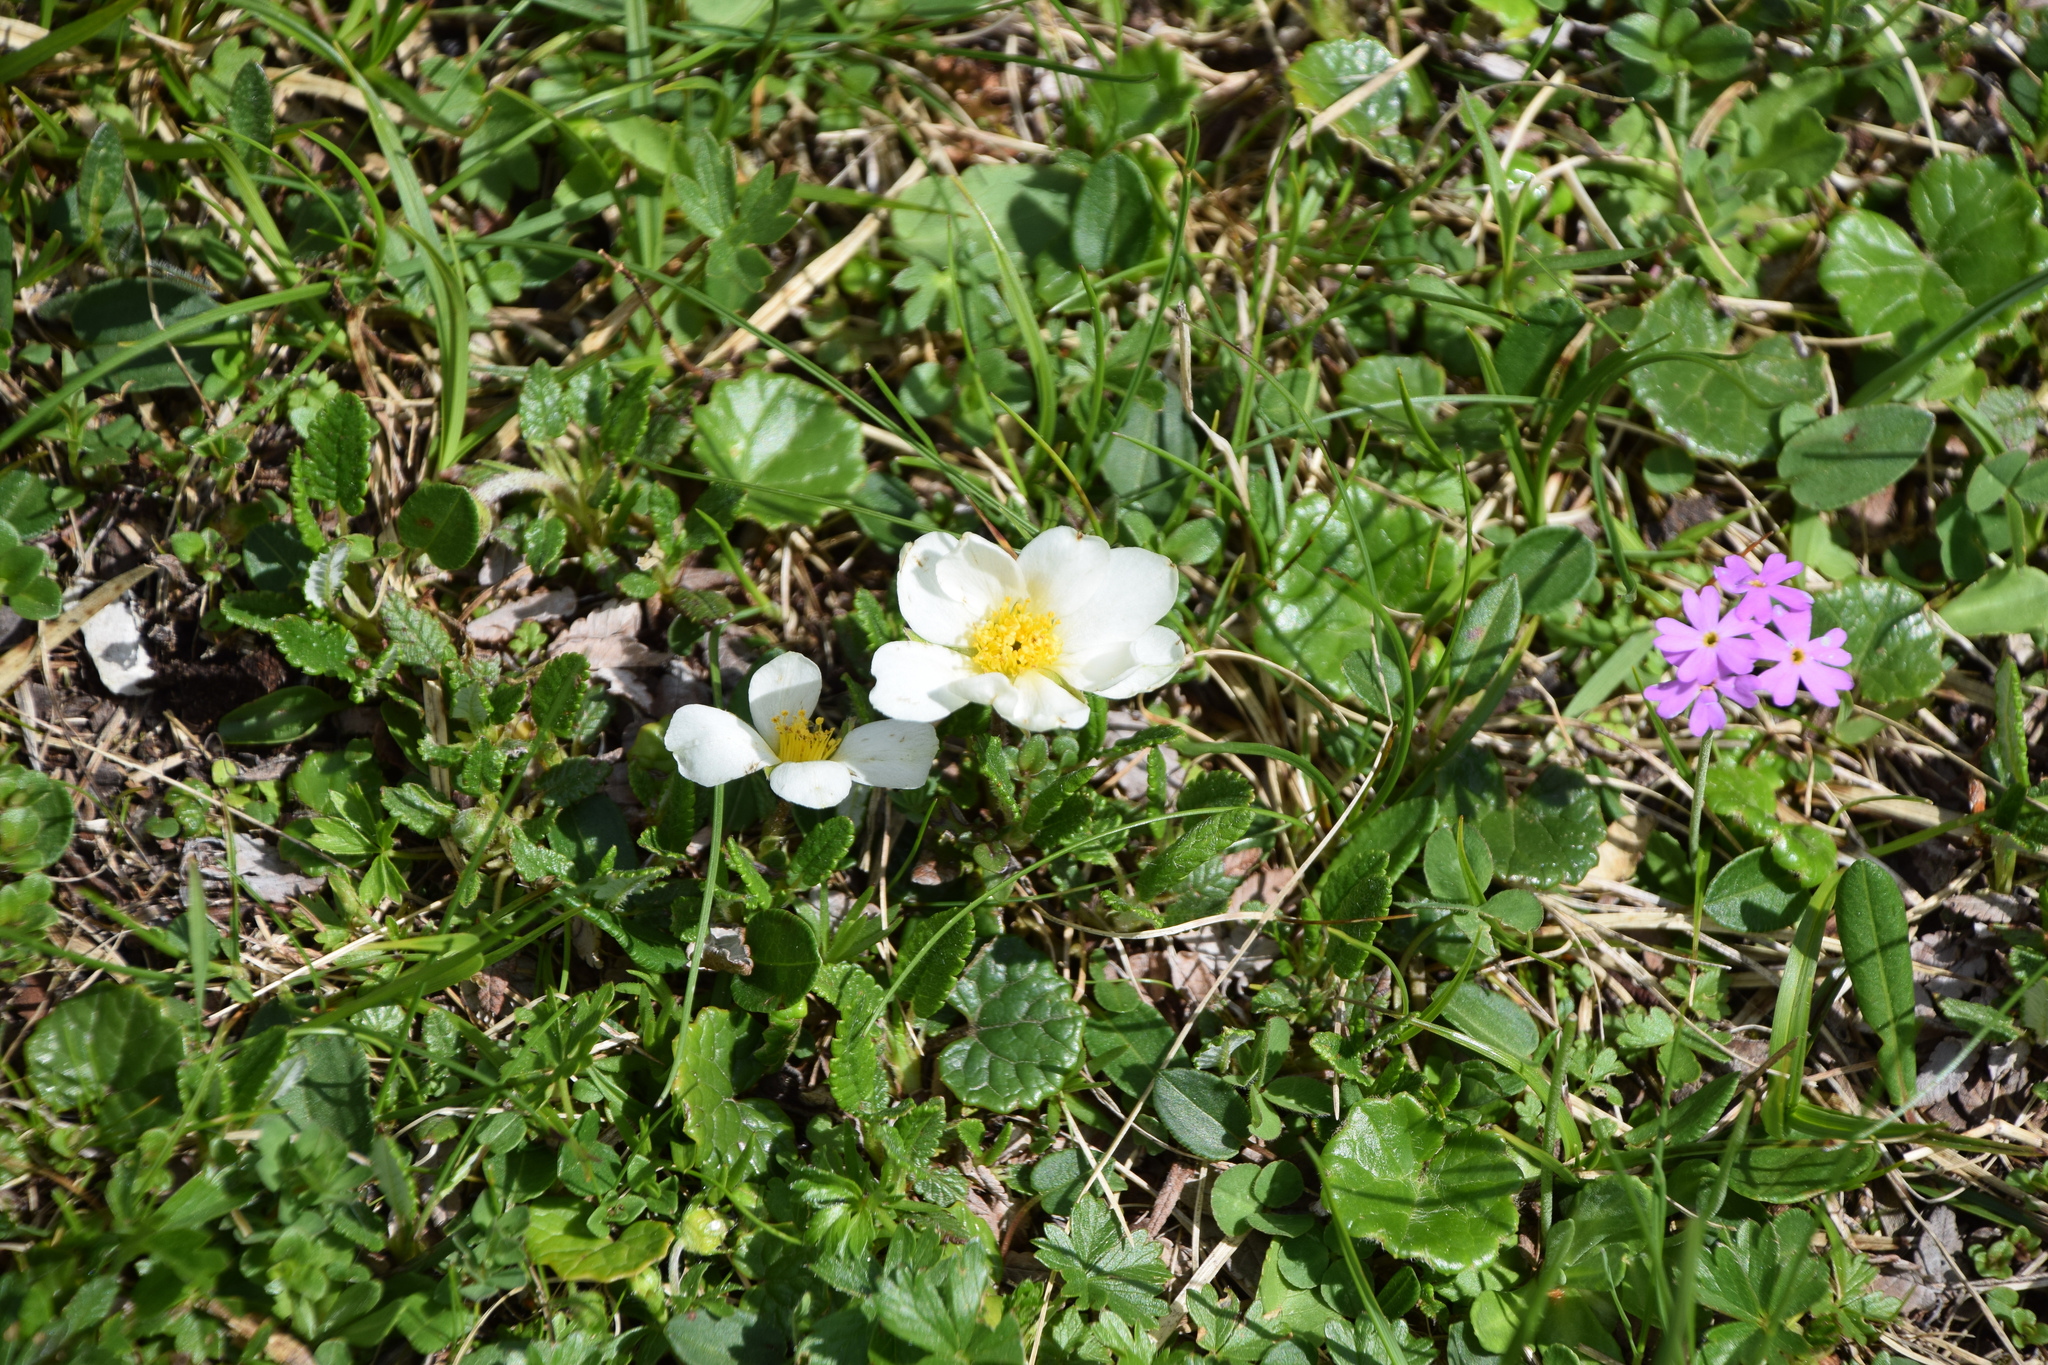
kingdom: Plantae
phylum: Tracheophyta
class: Magnoliopsida
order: Rosales
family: Rosaceae
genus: Dryas
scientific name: Dryas octopetala
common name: Eight-petal mountain-avens
